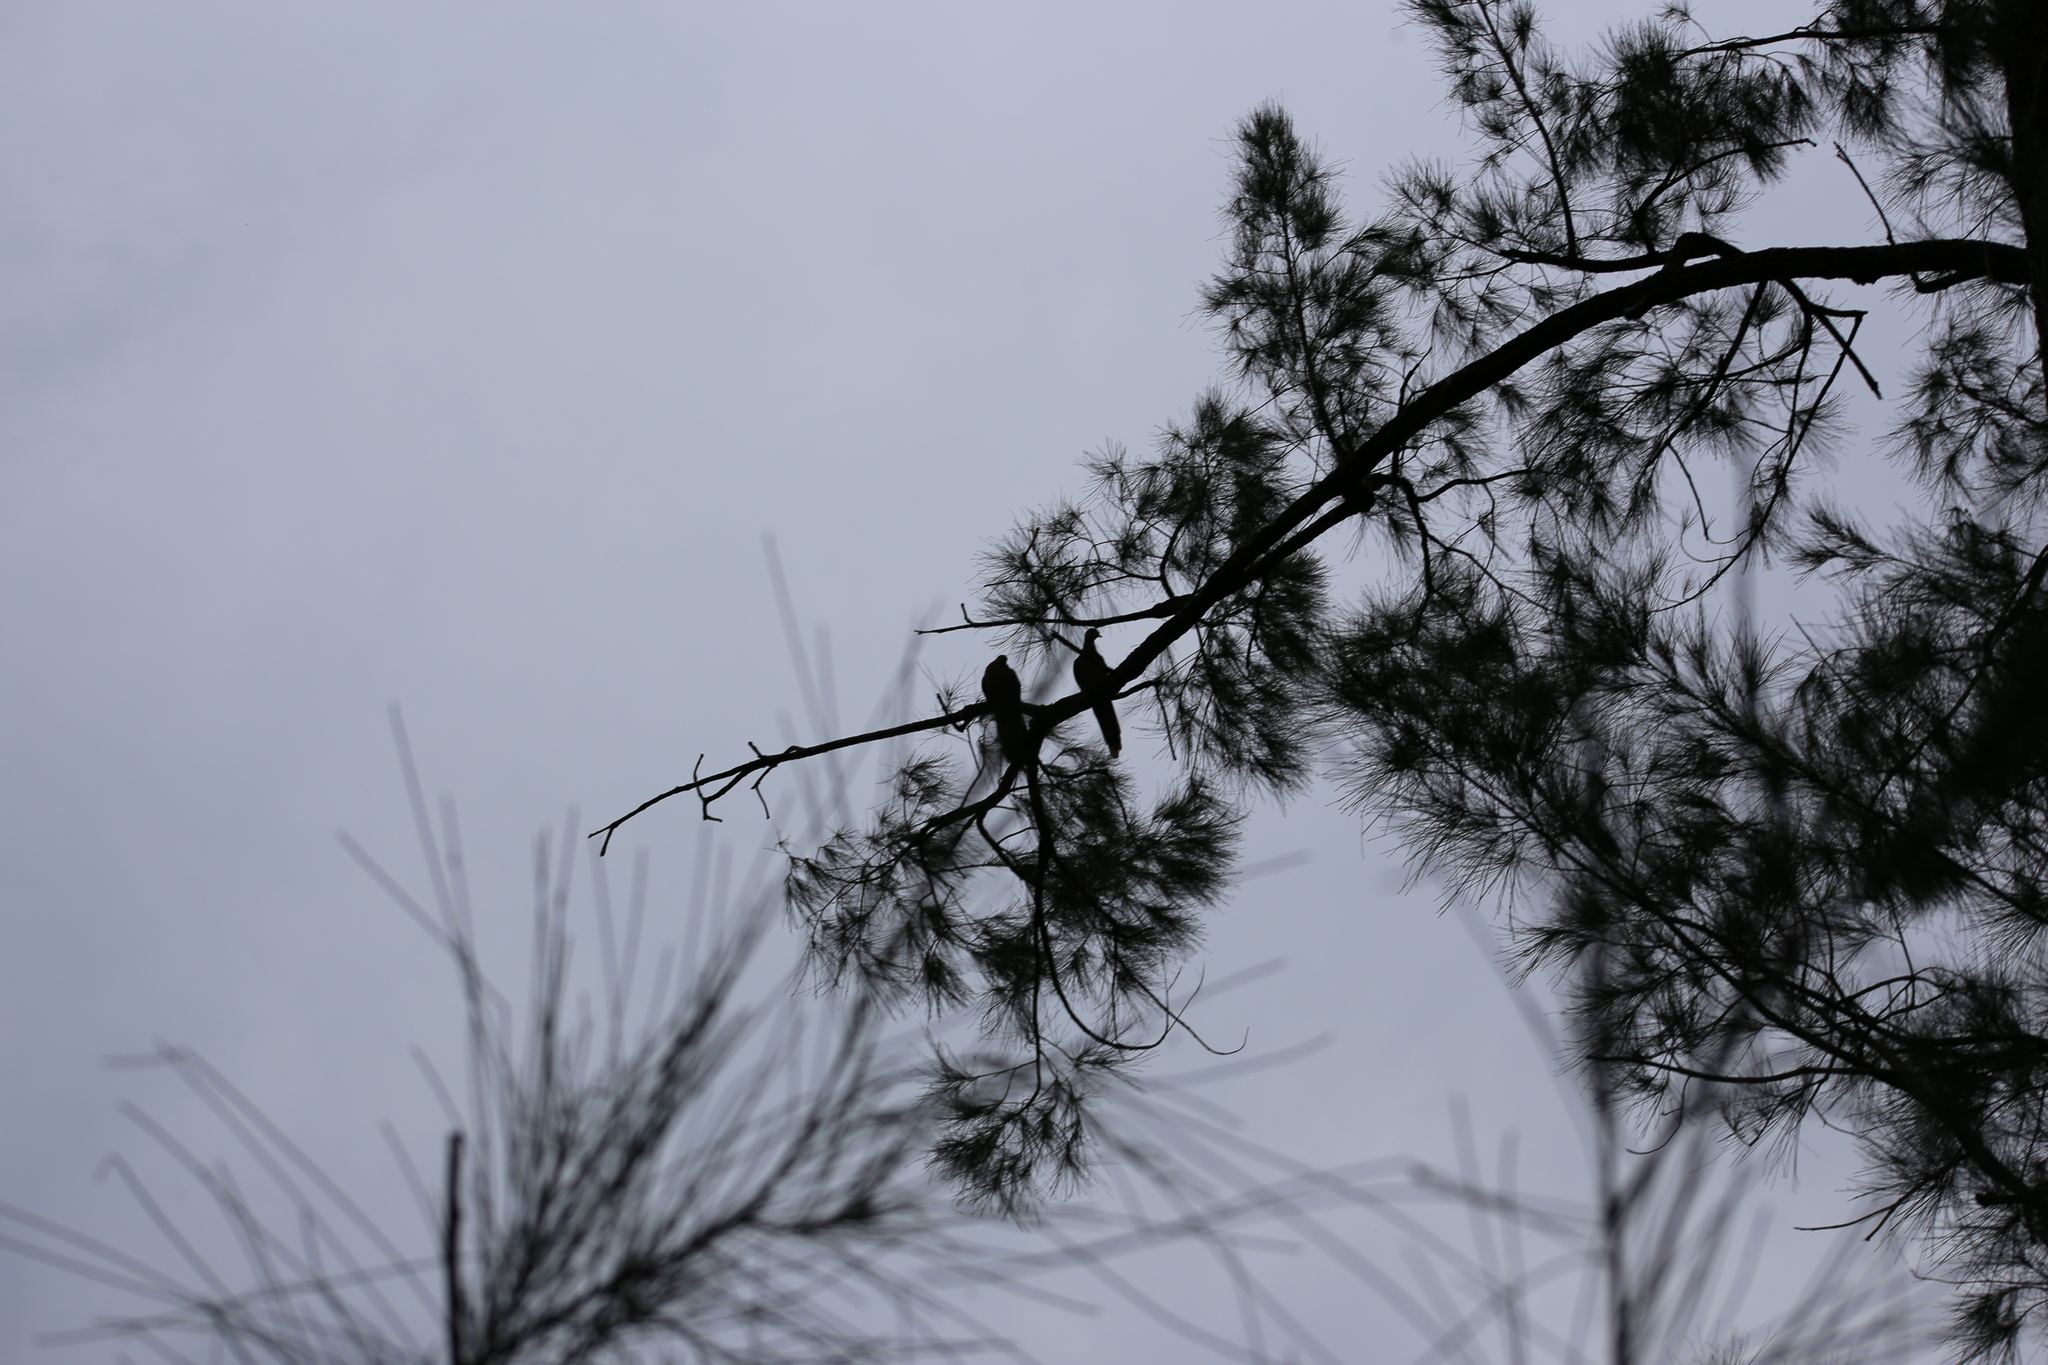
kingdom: Animalia
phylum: Chordata
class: Aves
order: Columbiformes
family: Columbidae
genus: Macropygia
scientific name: Macropygia phasianella
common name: Brown cuckoo-dove
